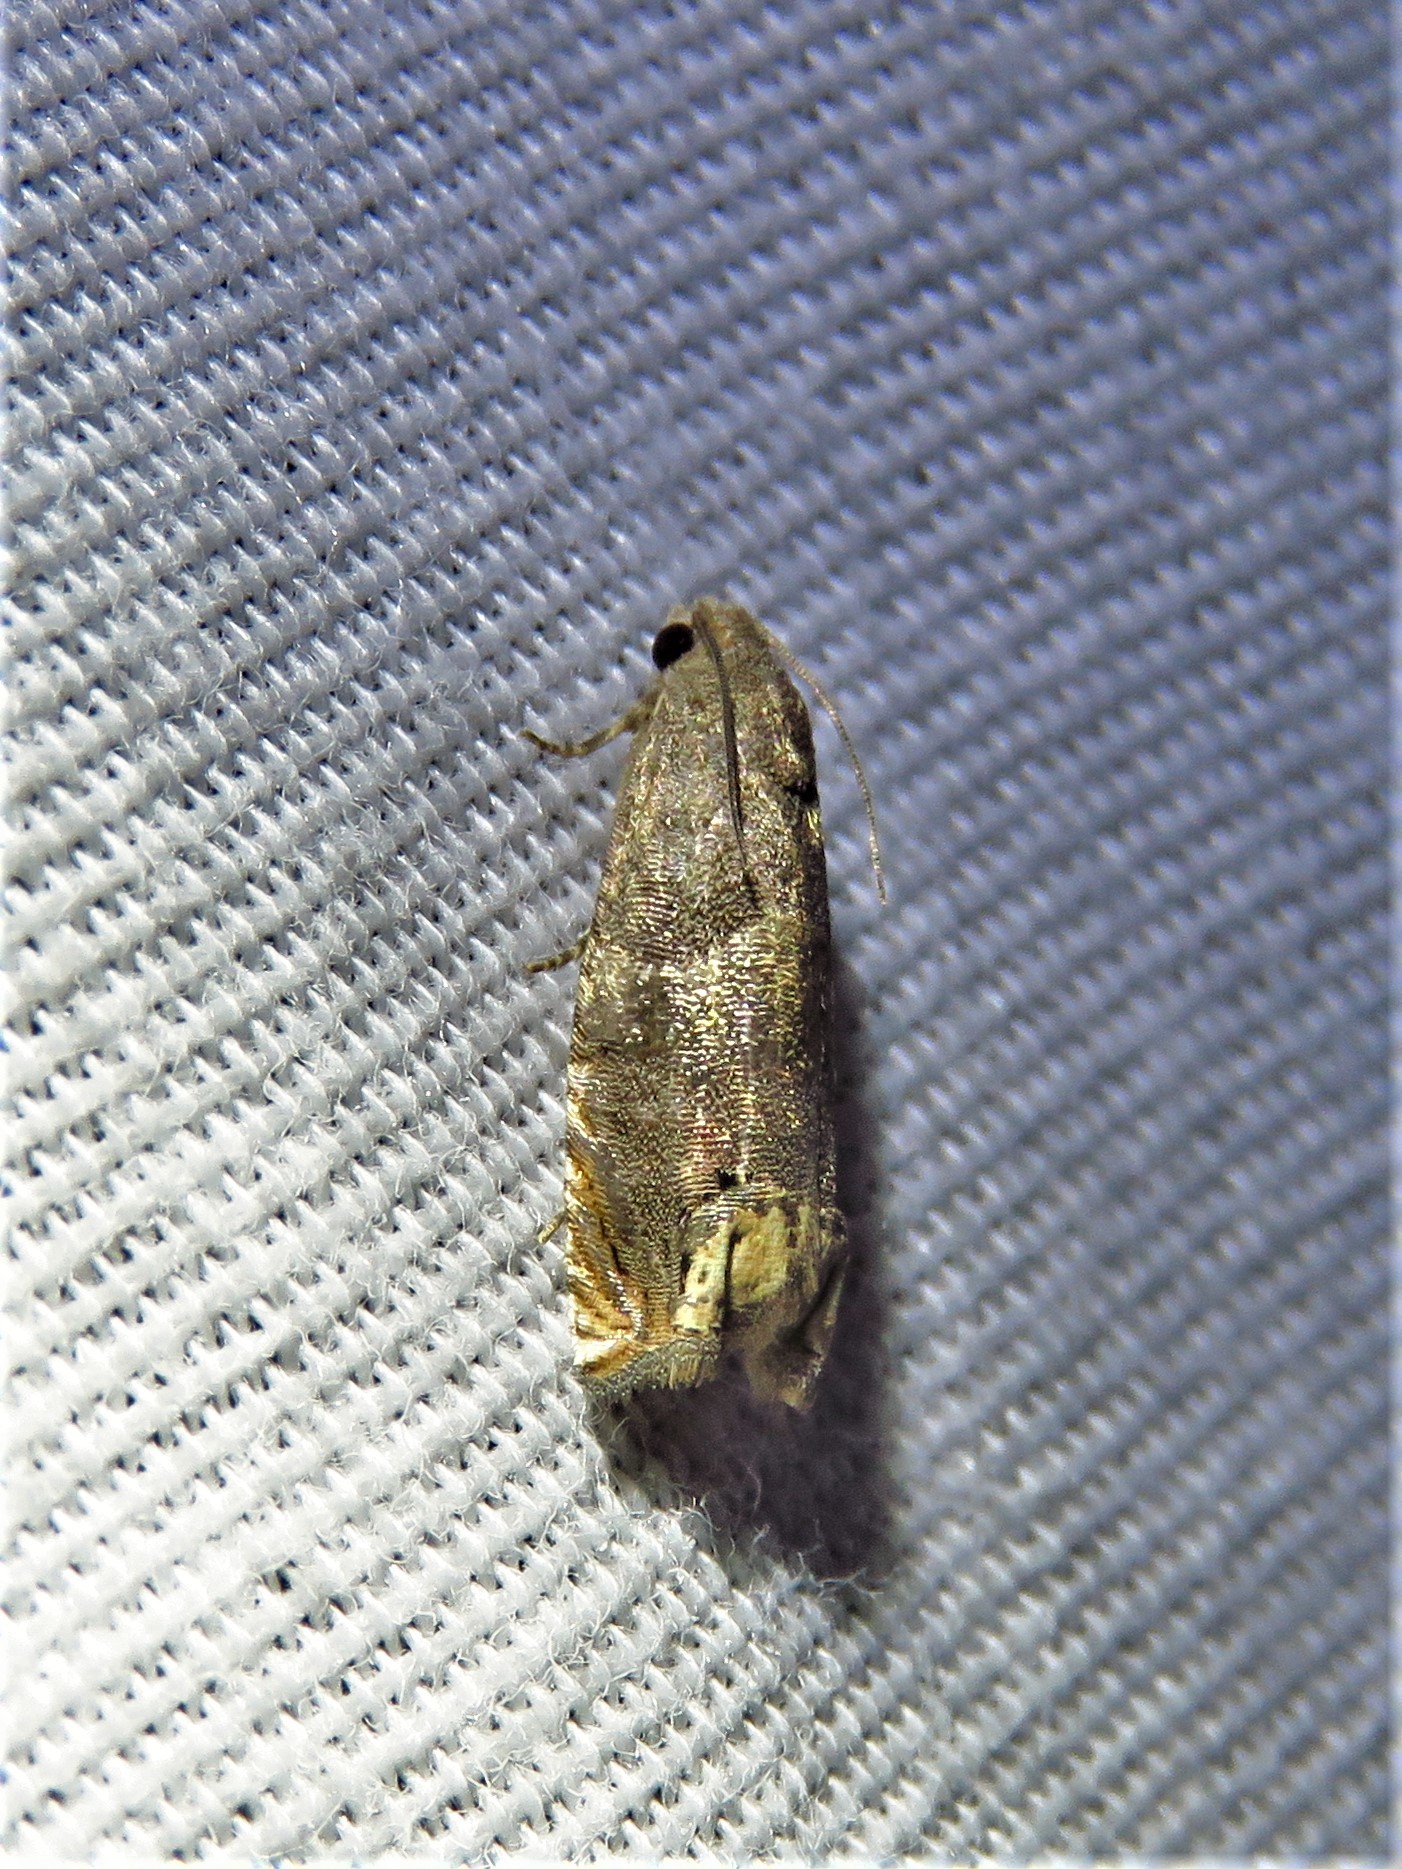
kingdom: Animalia
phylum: Arthropoda
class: Insecta
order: Lepidoptera
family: Tortricidae
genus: Epiblema
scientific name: Epiblema strenuana
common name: Ragweed borer moth
